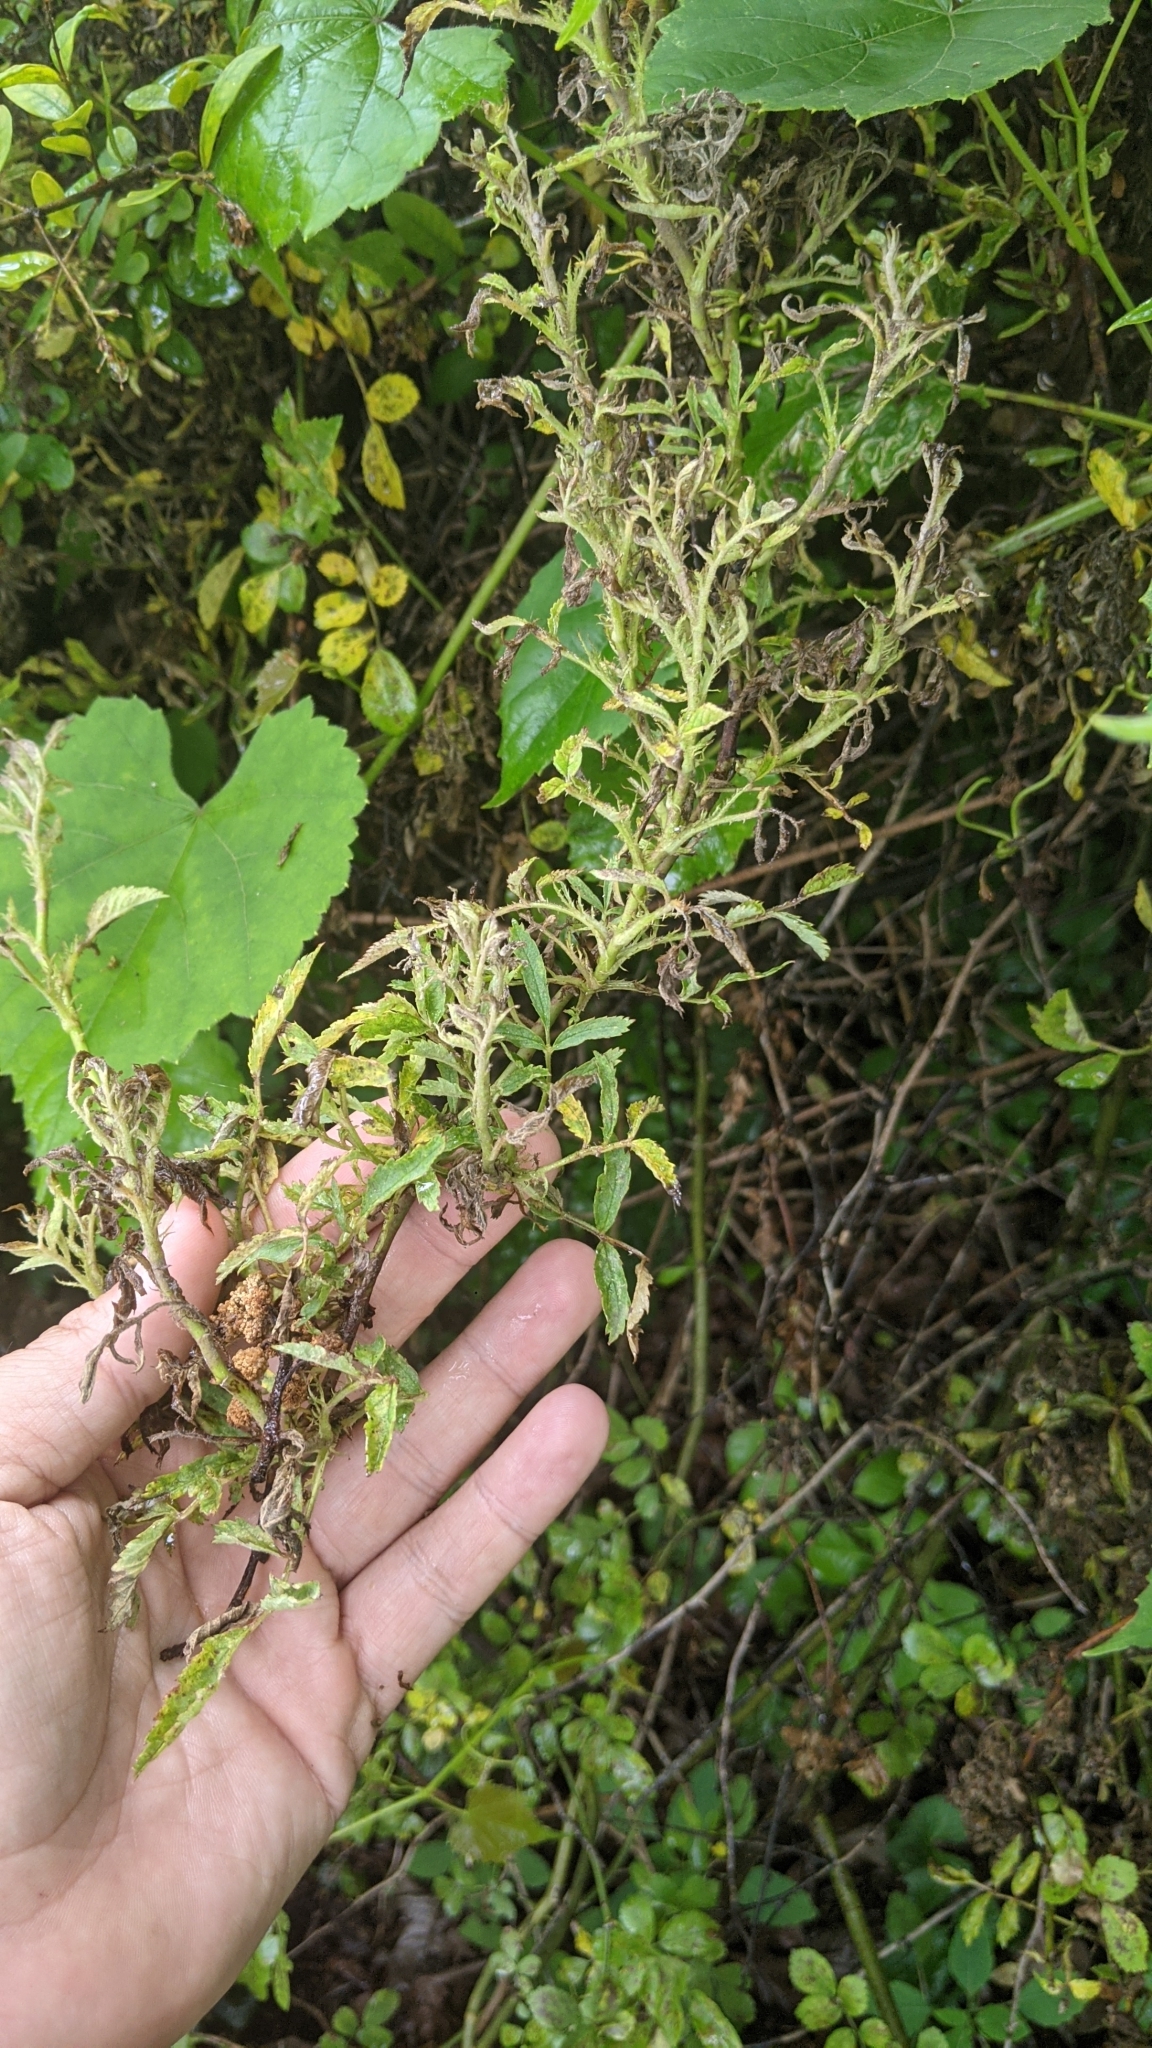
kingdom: Viruses
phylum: Negarnaviricota
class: Ellioviricetes
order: Bunyavirales
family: Fimoviridae
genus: Emaravirus
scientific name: Emaravirus rosae
